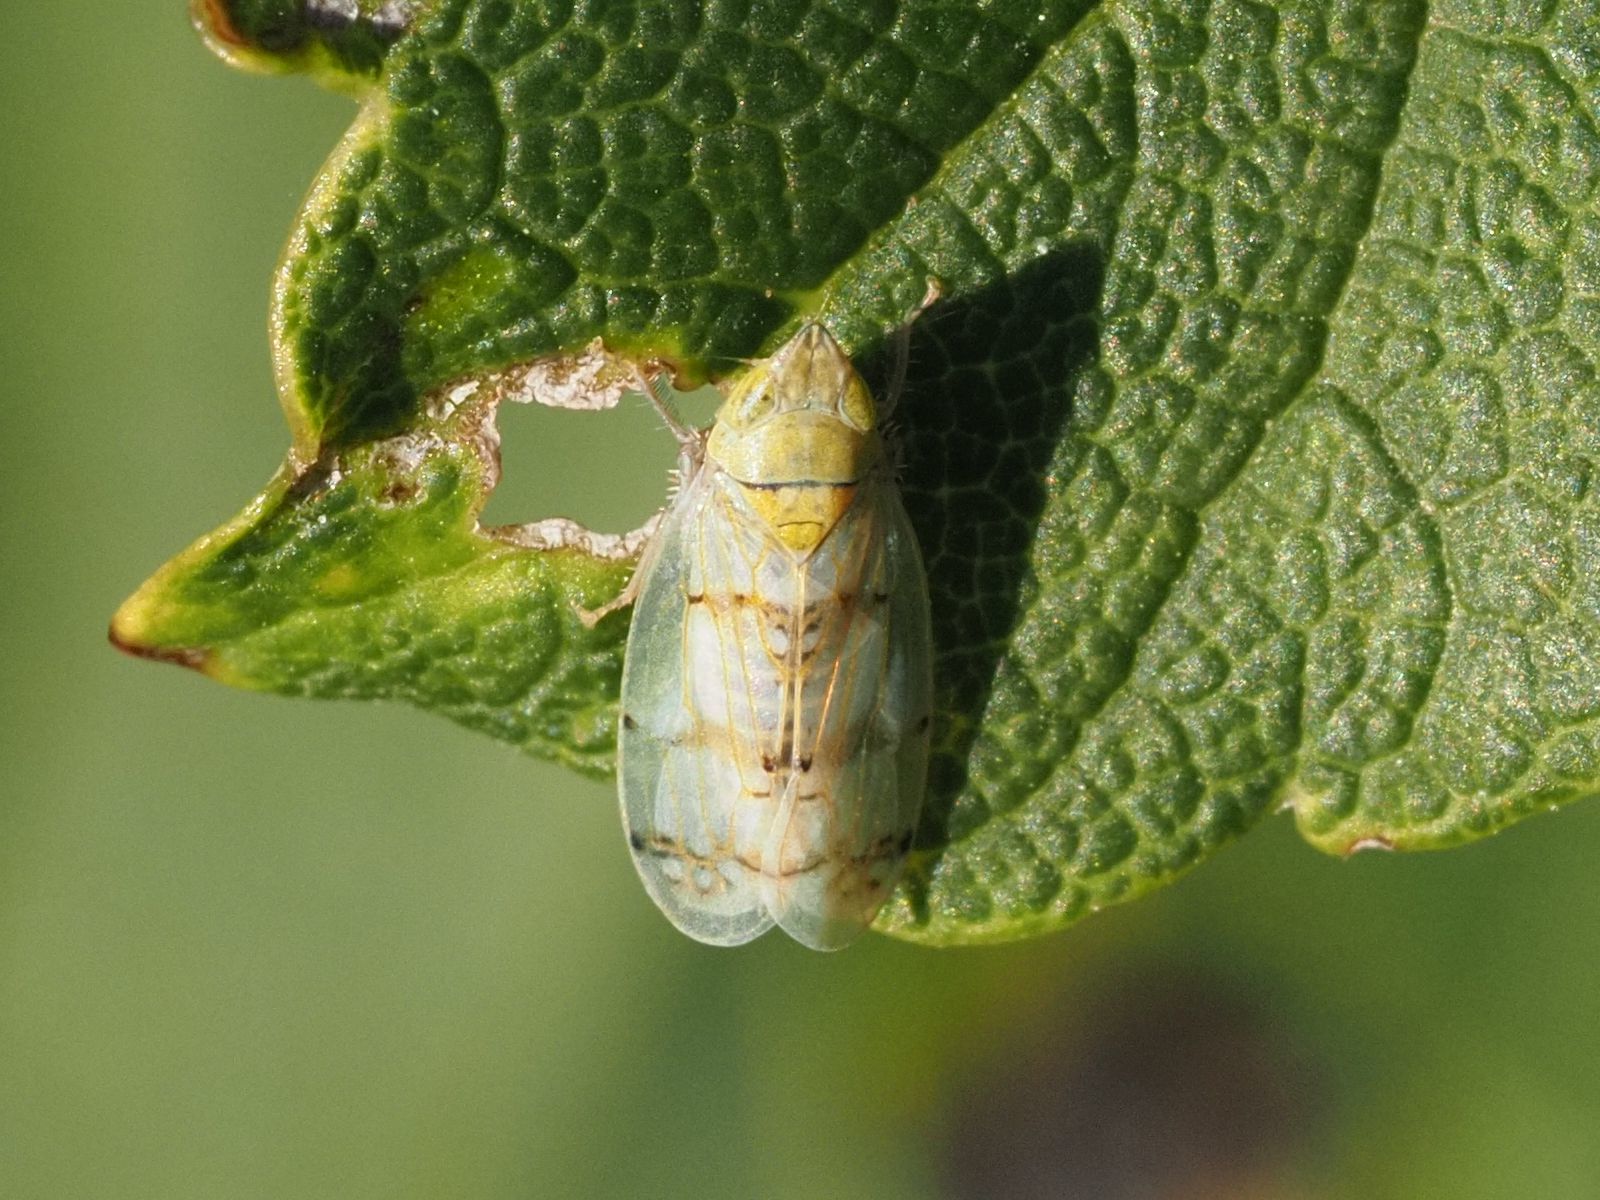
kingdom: Animalia
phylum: Arthropoda
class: Insecta
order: Hemiptera
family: Cicadellidae
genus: Japananus
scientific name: Japananus hyalinus
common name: The japanese maple leafhopper
